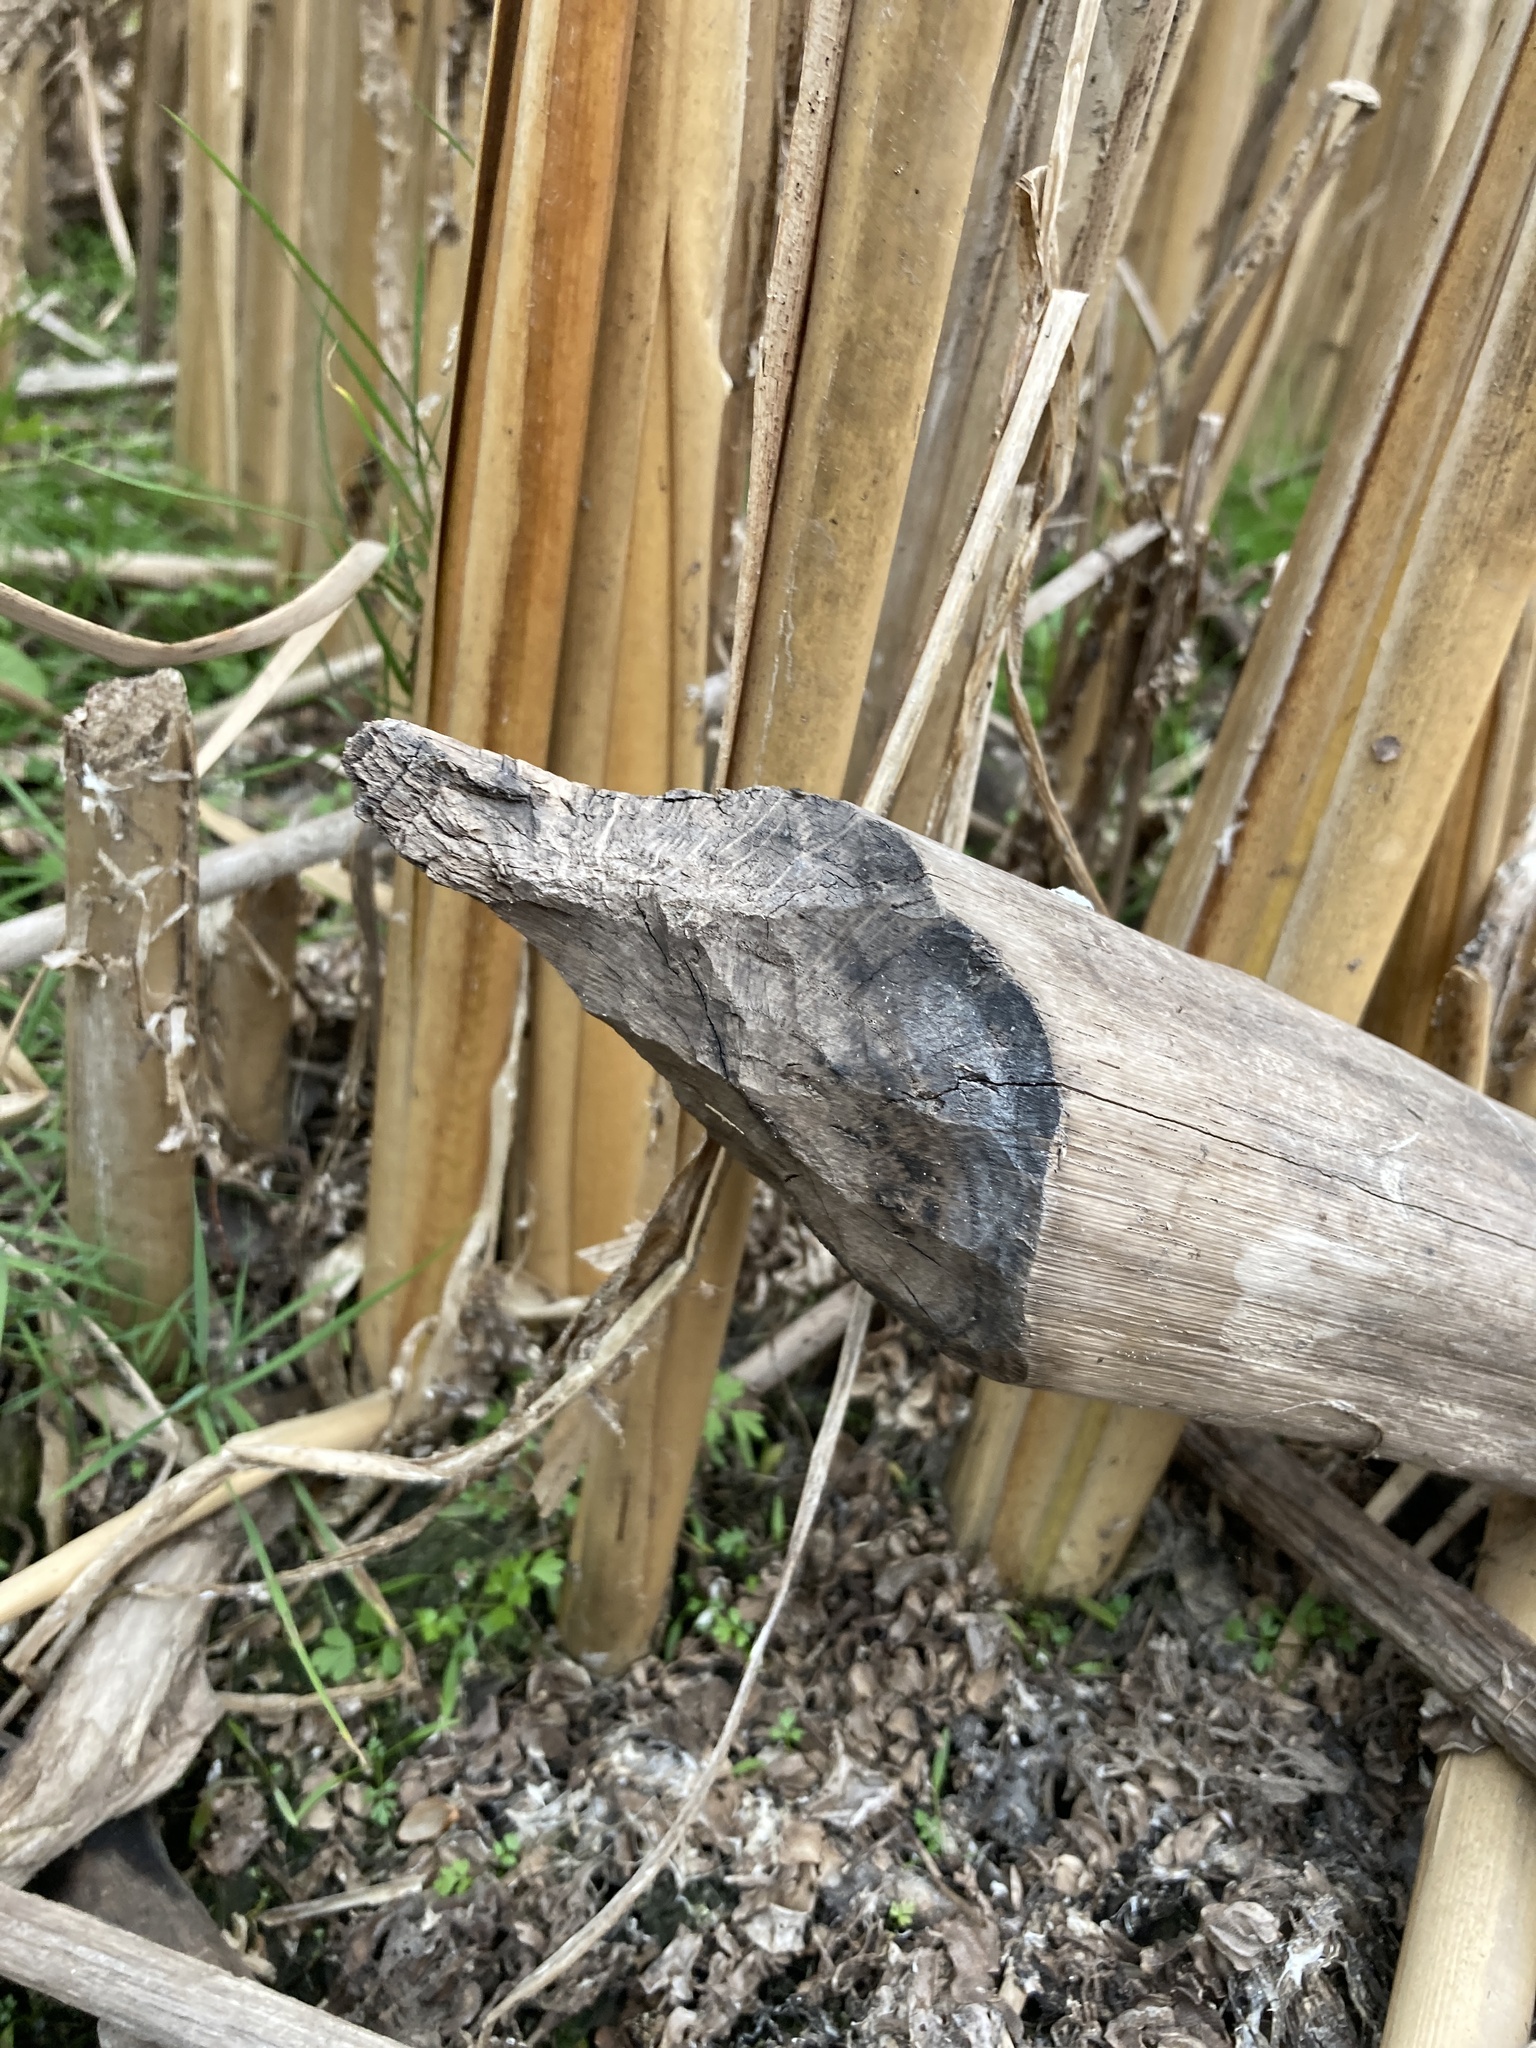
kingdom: Animalia
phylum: Chordata
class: Mammalia
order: Rodentia
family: Castoridae
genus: Castor
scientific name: Castor fiber
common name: Eurasian beaver
